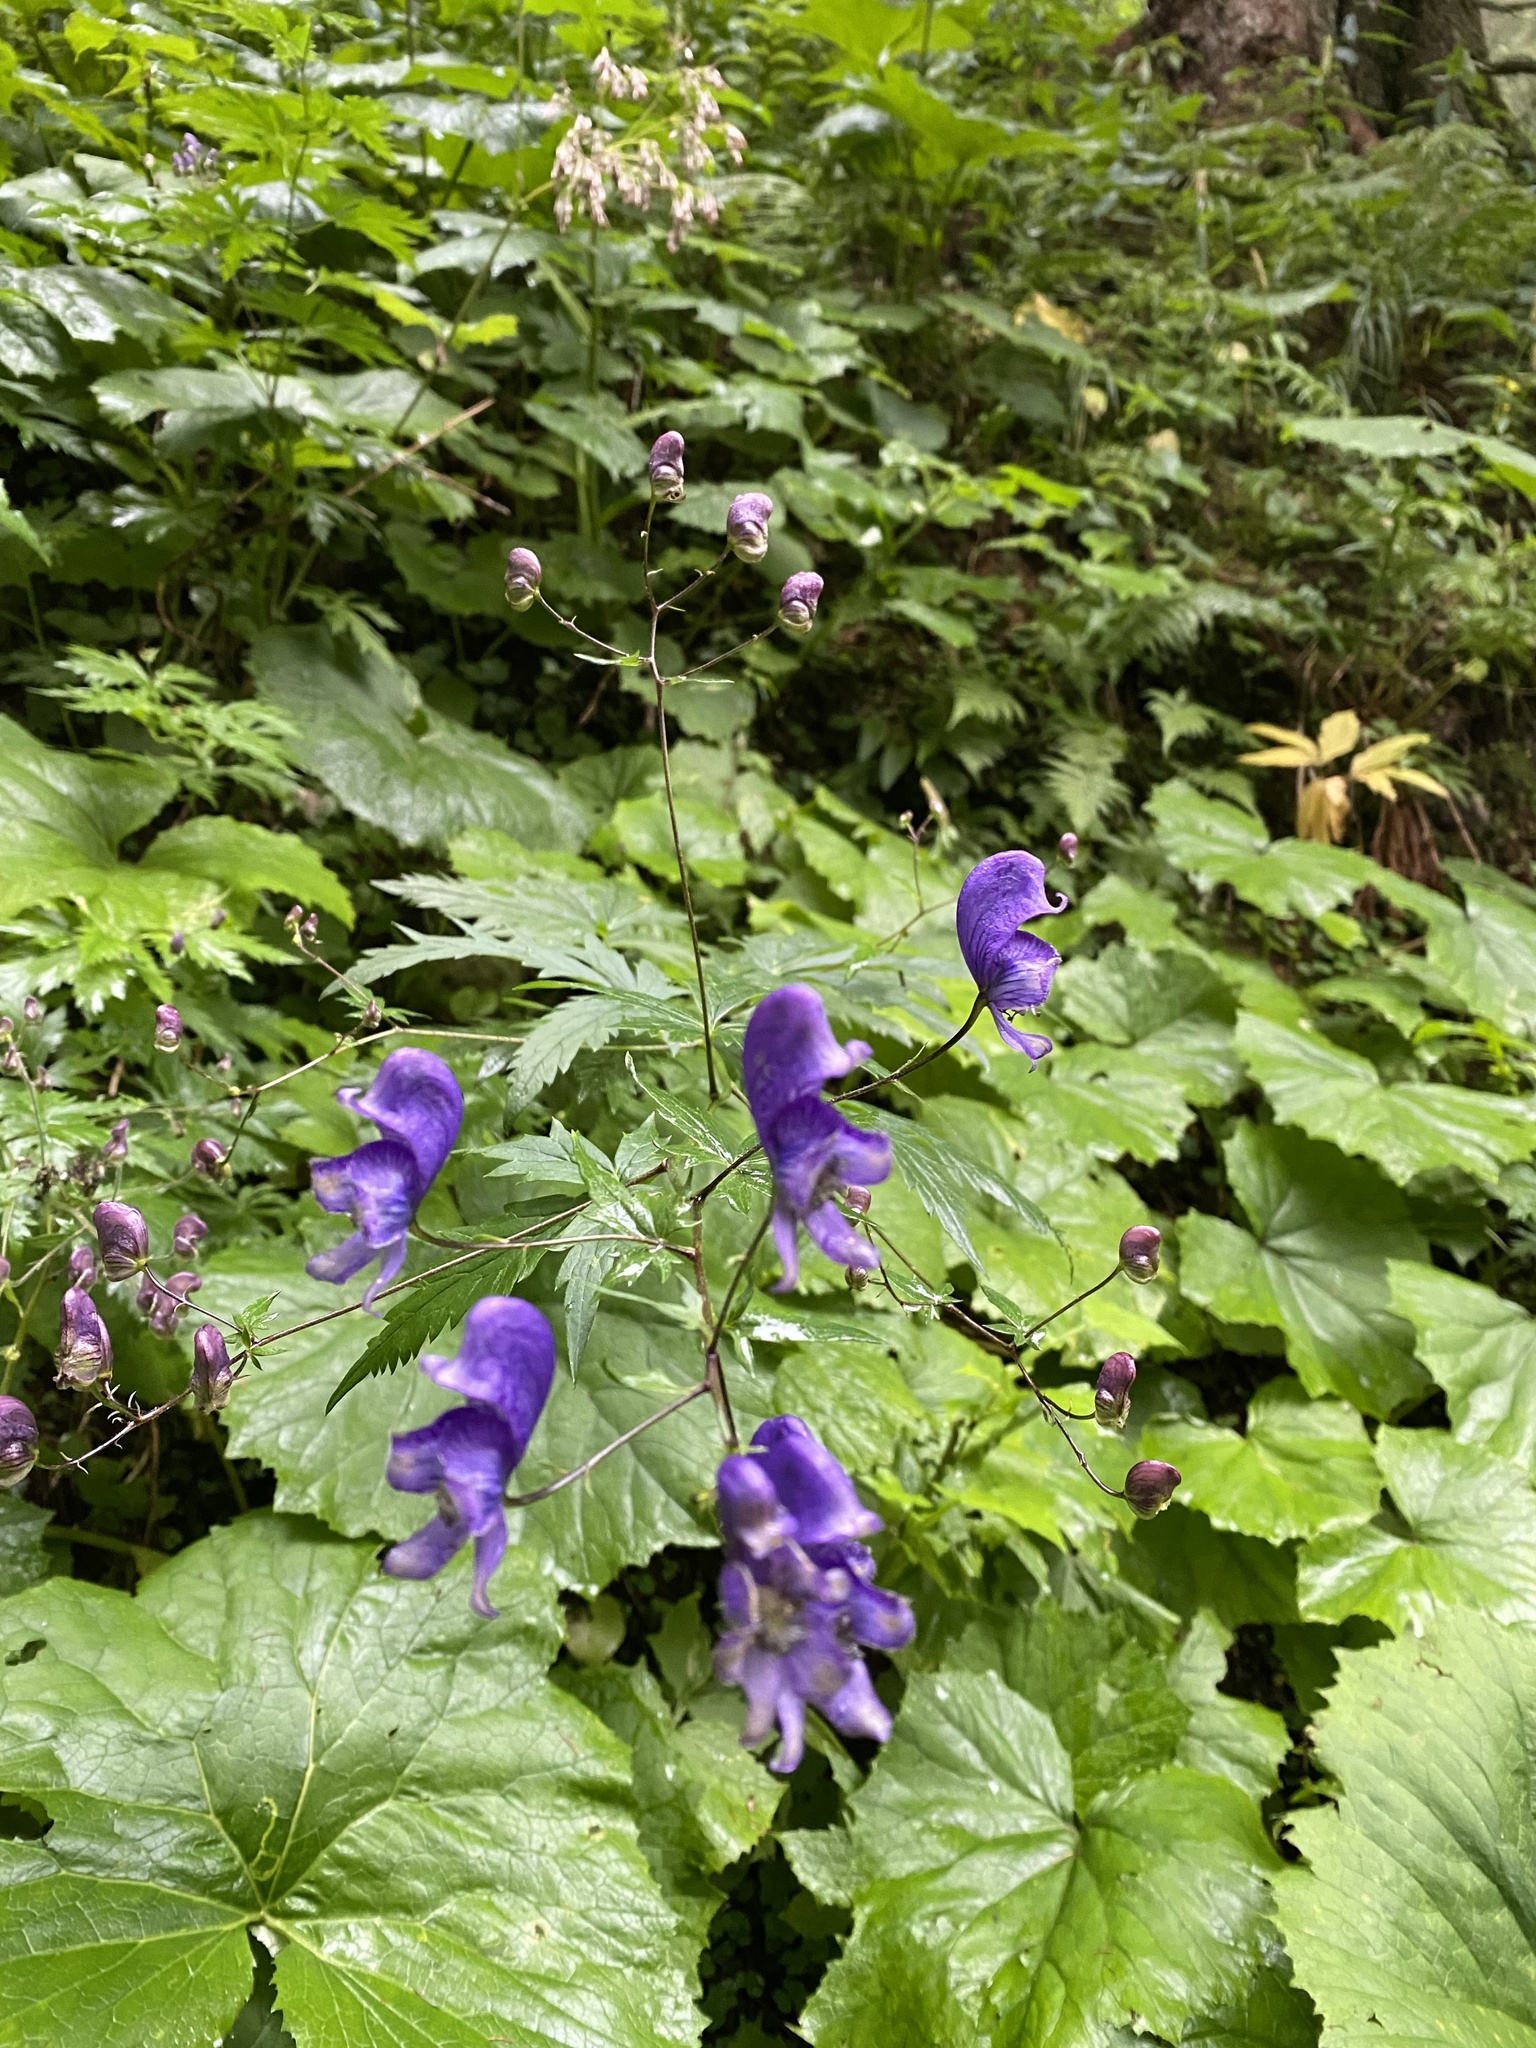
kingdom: Plantae
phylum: Tracheophyta
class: Magnoliopsida
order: Ranunculales
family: Ranunculaceae
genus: Aconitum
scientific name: Aconitum degenii
